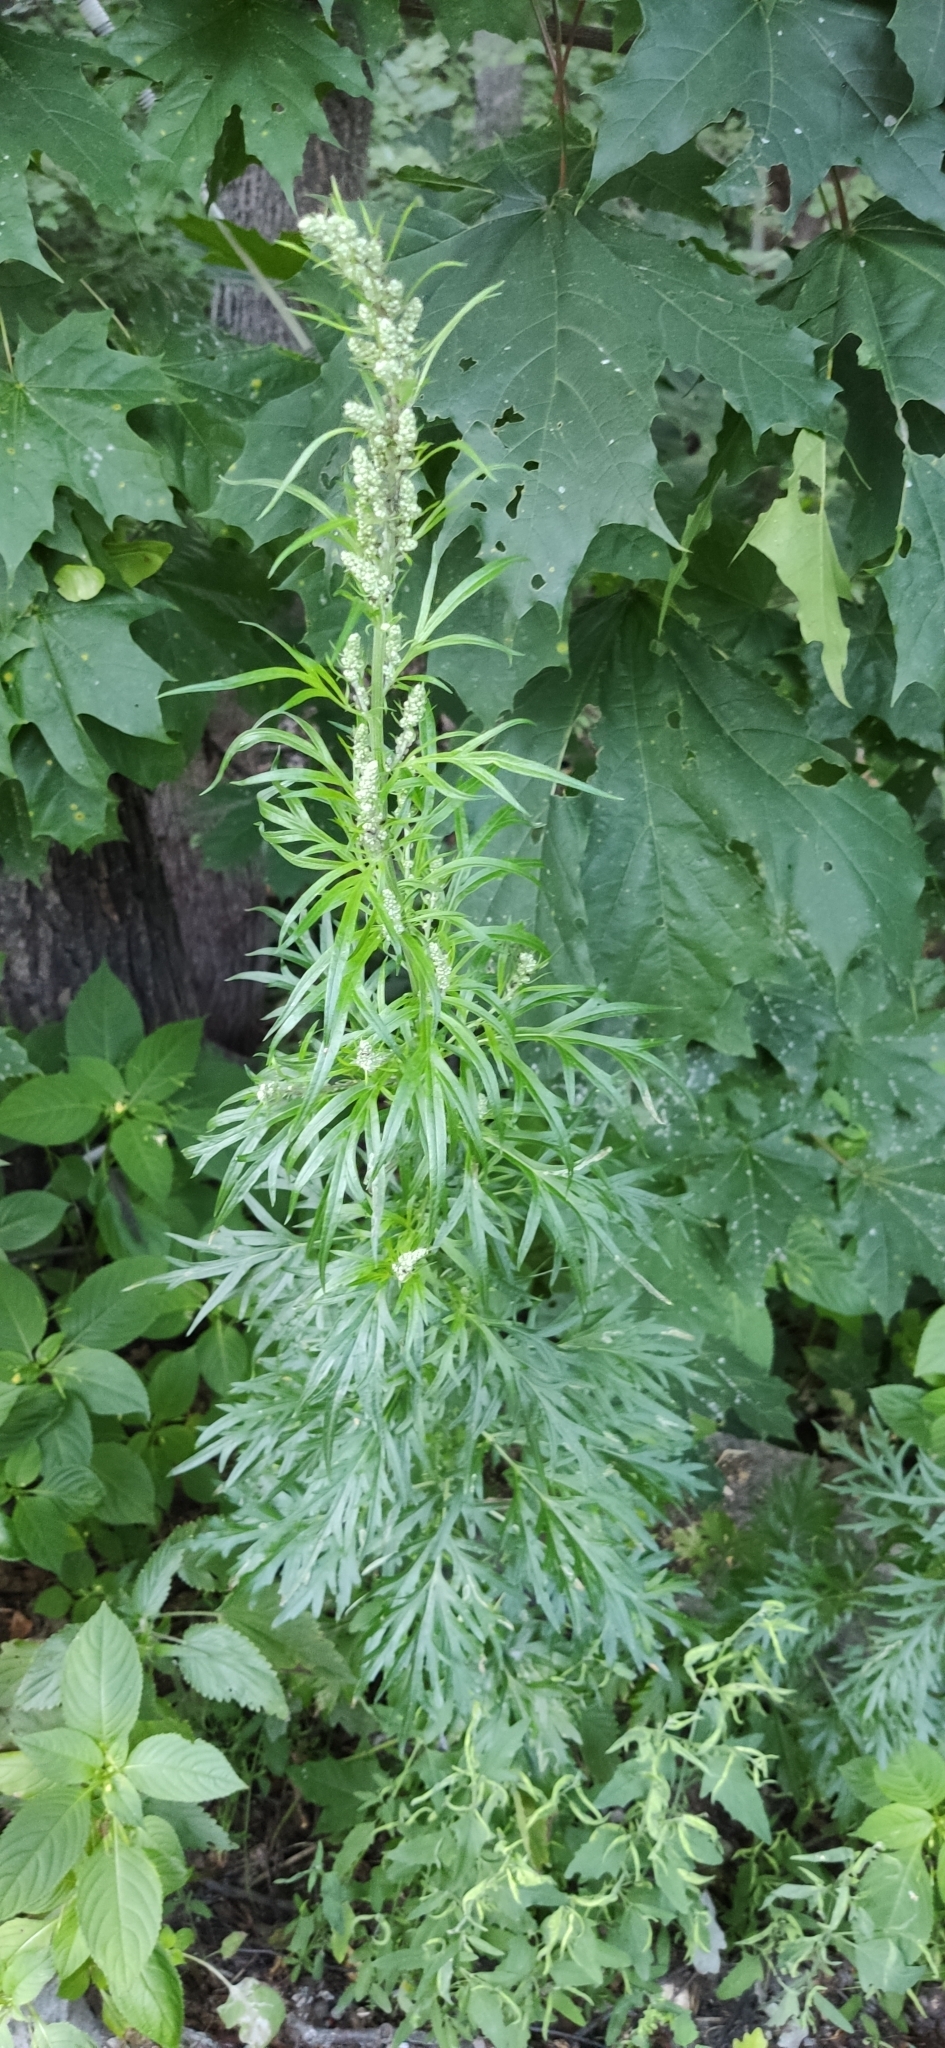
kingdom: Plantae
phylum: Tracheophyta
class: Magnoliopsida
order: Asterales
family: Asteraceae
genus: Artemisia
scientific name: Artemisia vulgaris
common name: Mugwort
